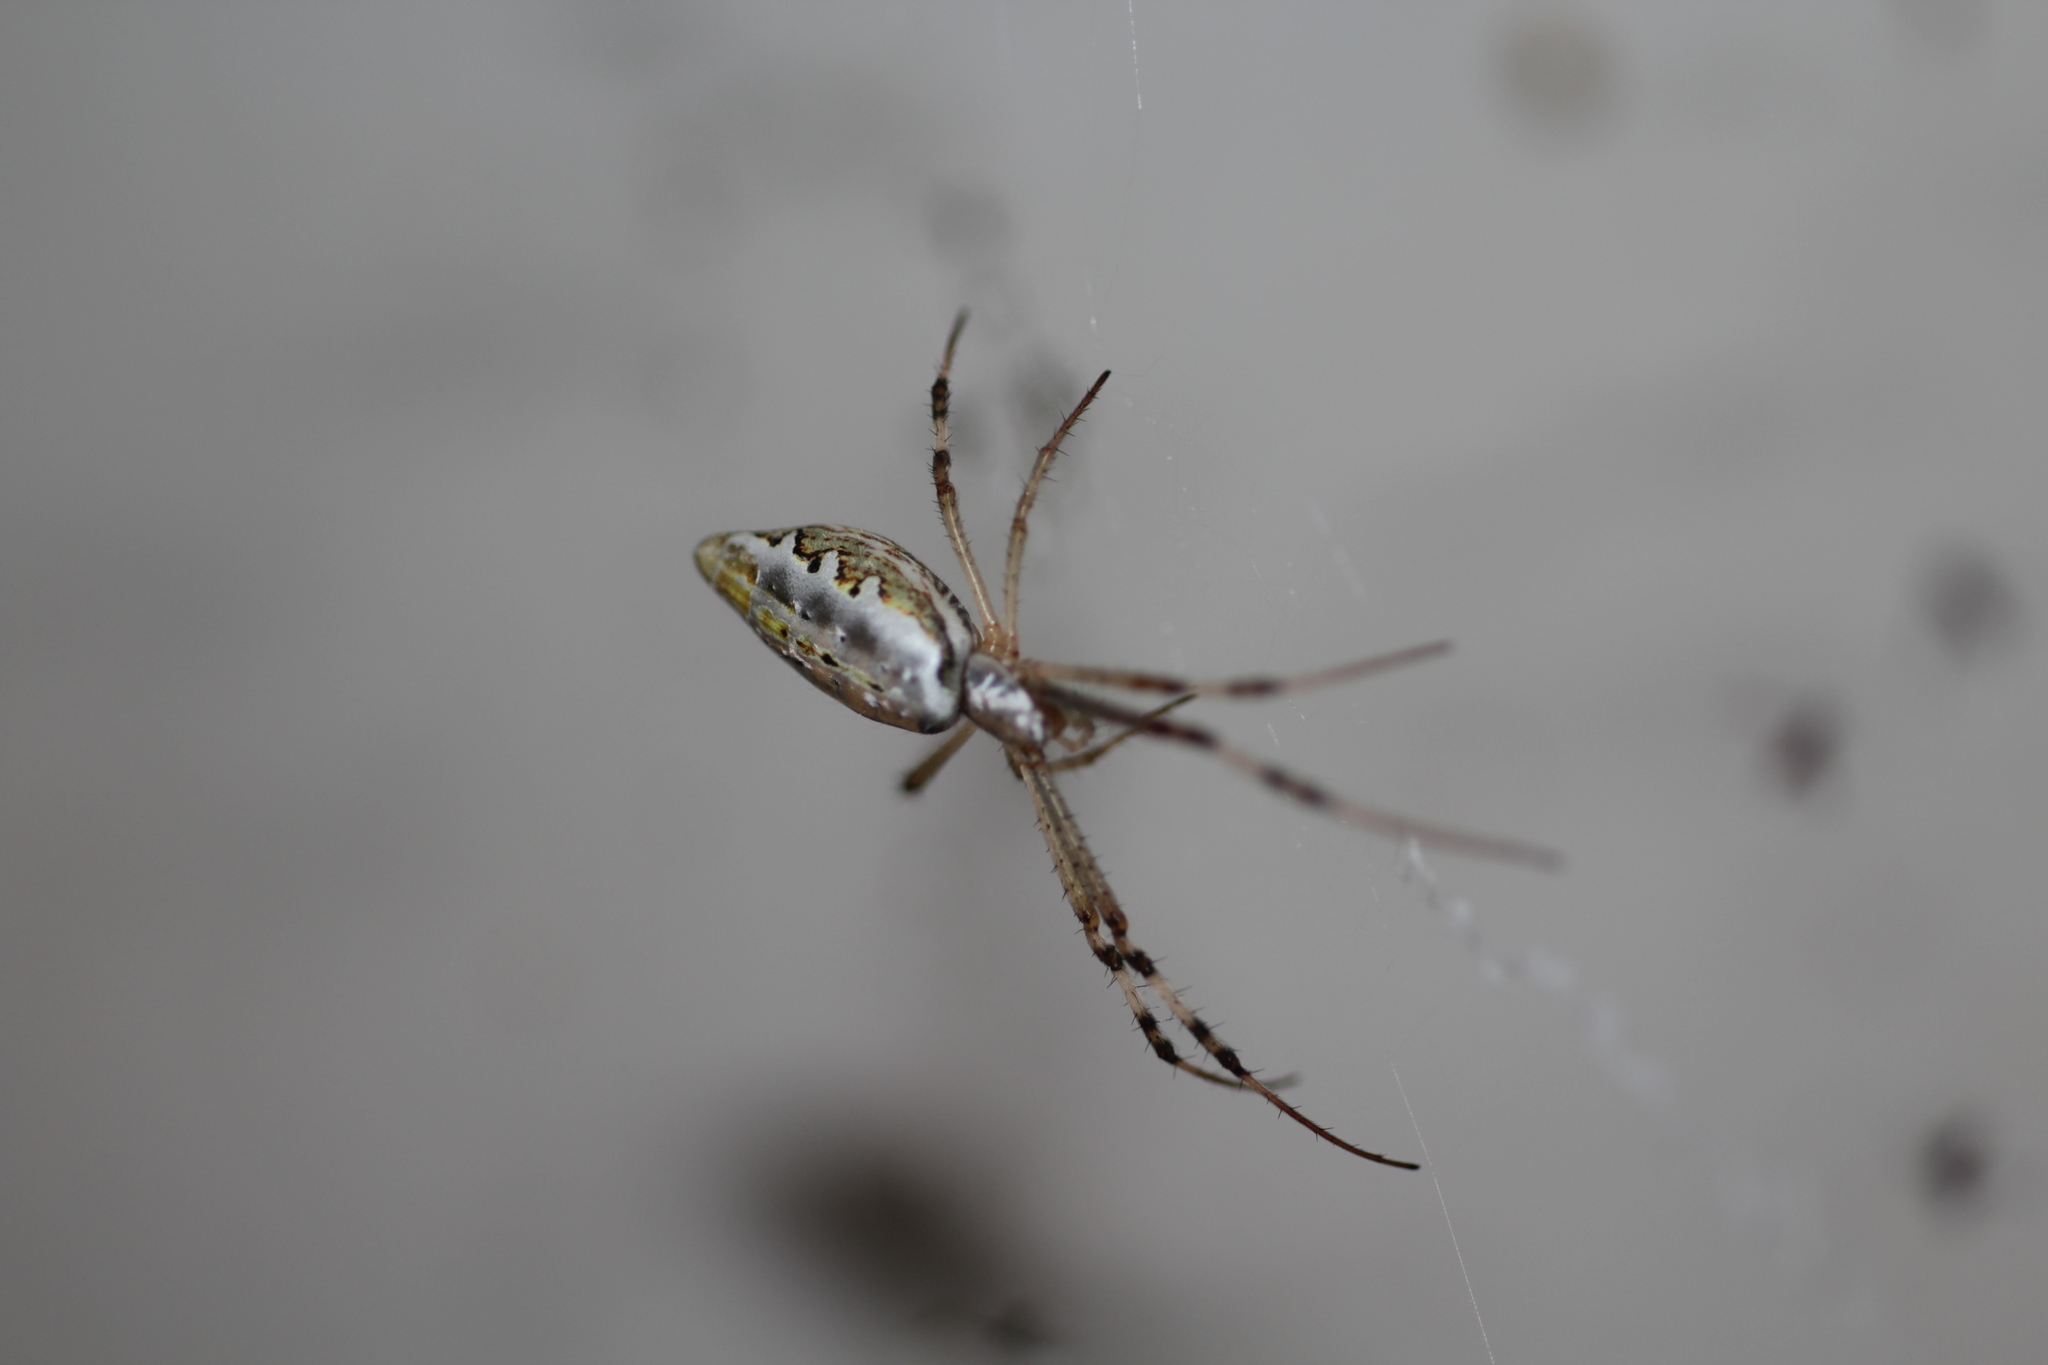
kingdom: Animalia
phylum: Arthropoda
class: Arachnida
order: Araneae
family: Araneidae
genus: Argiope
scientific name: Argiope protensa
